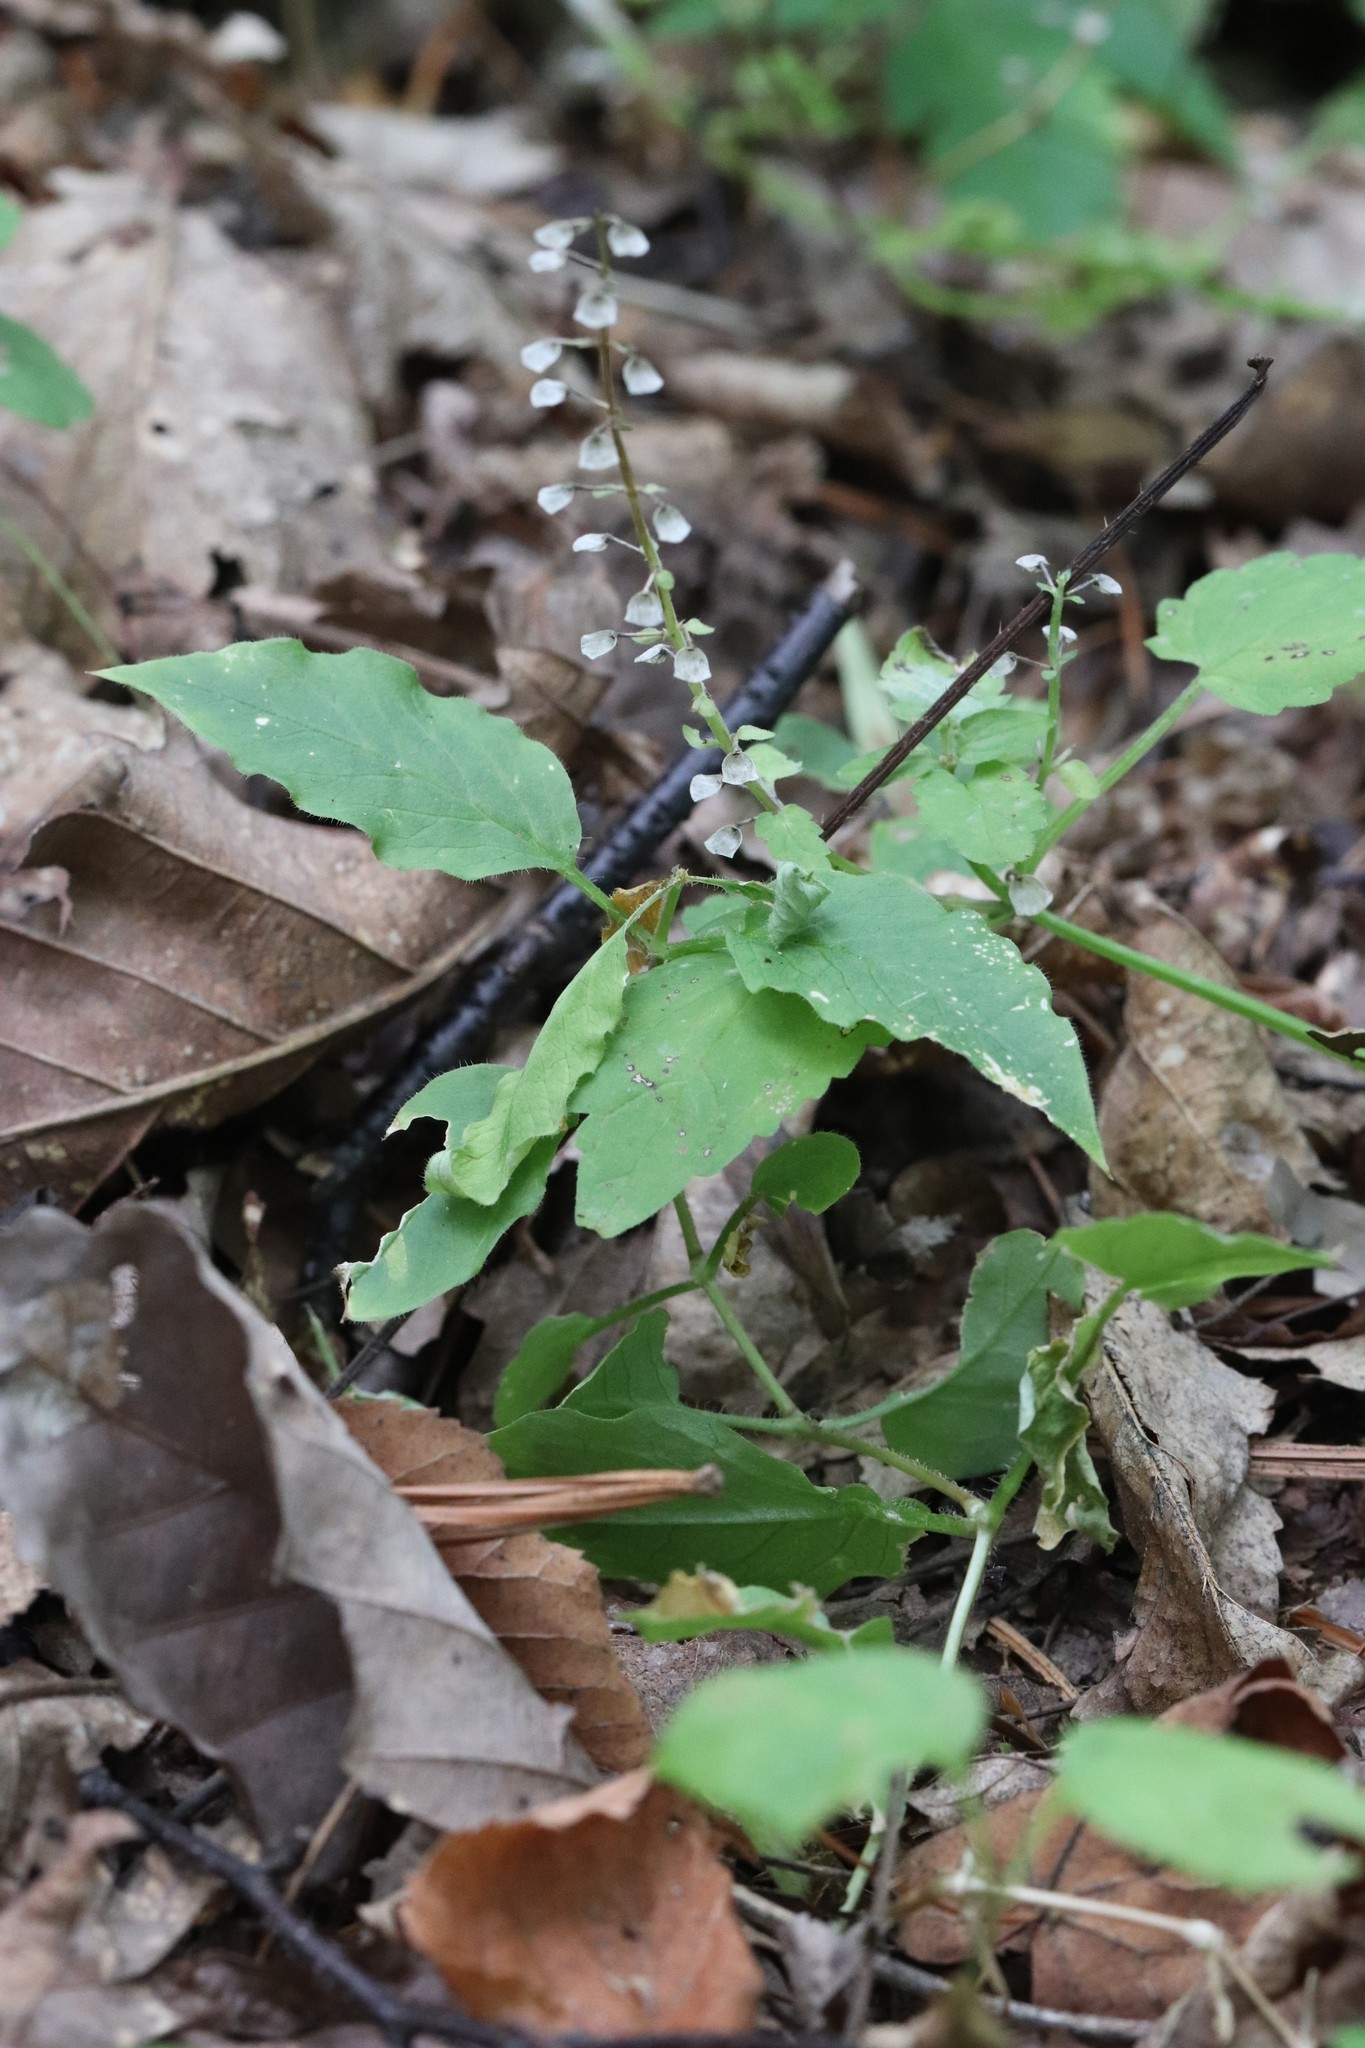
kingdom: Plantae
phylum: Tracheophyta
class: Magnoliopsida
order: Lamiales
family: Lamiaceae
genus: Scutellaria
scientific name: Scutellaria pekinensis
